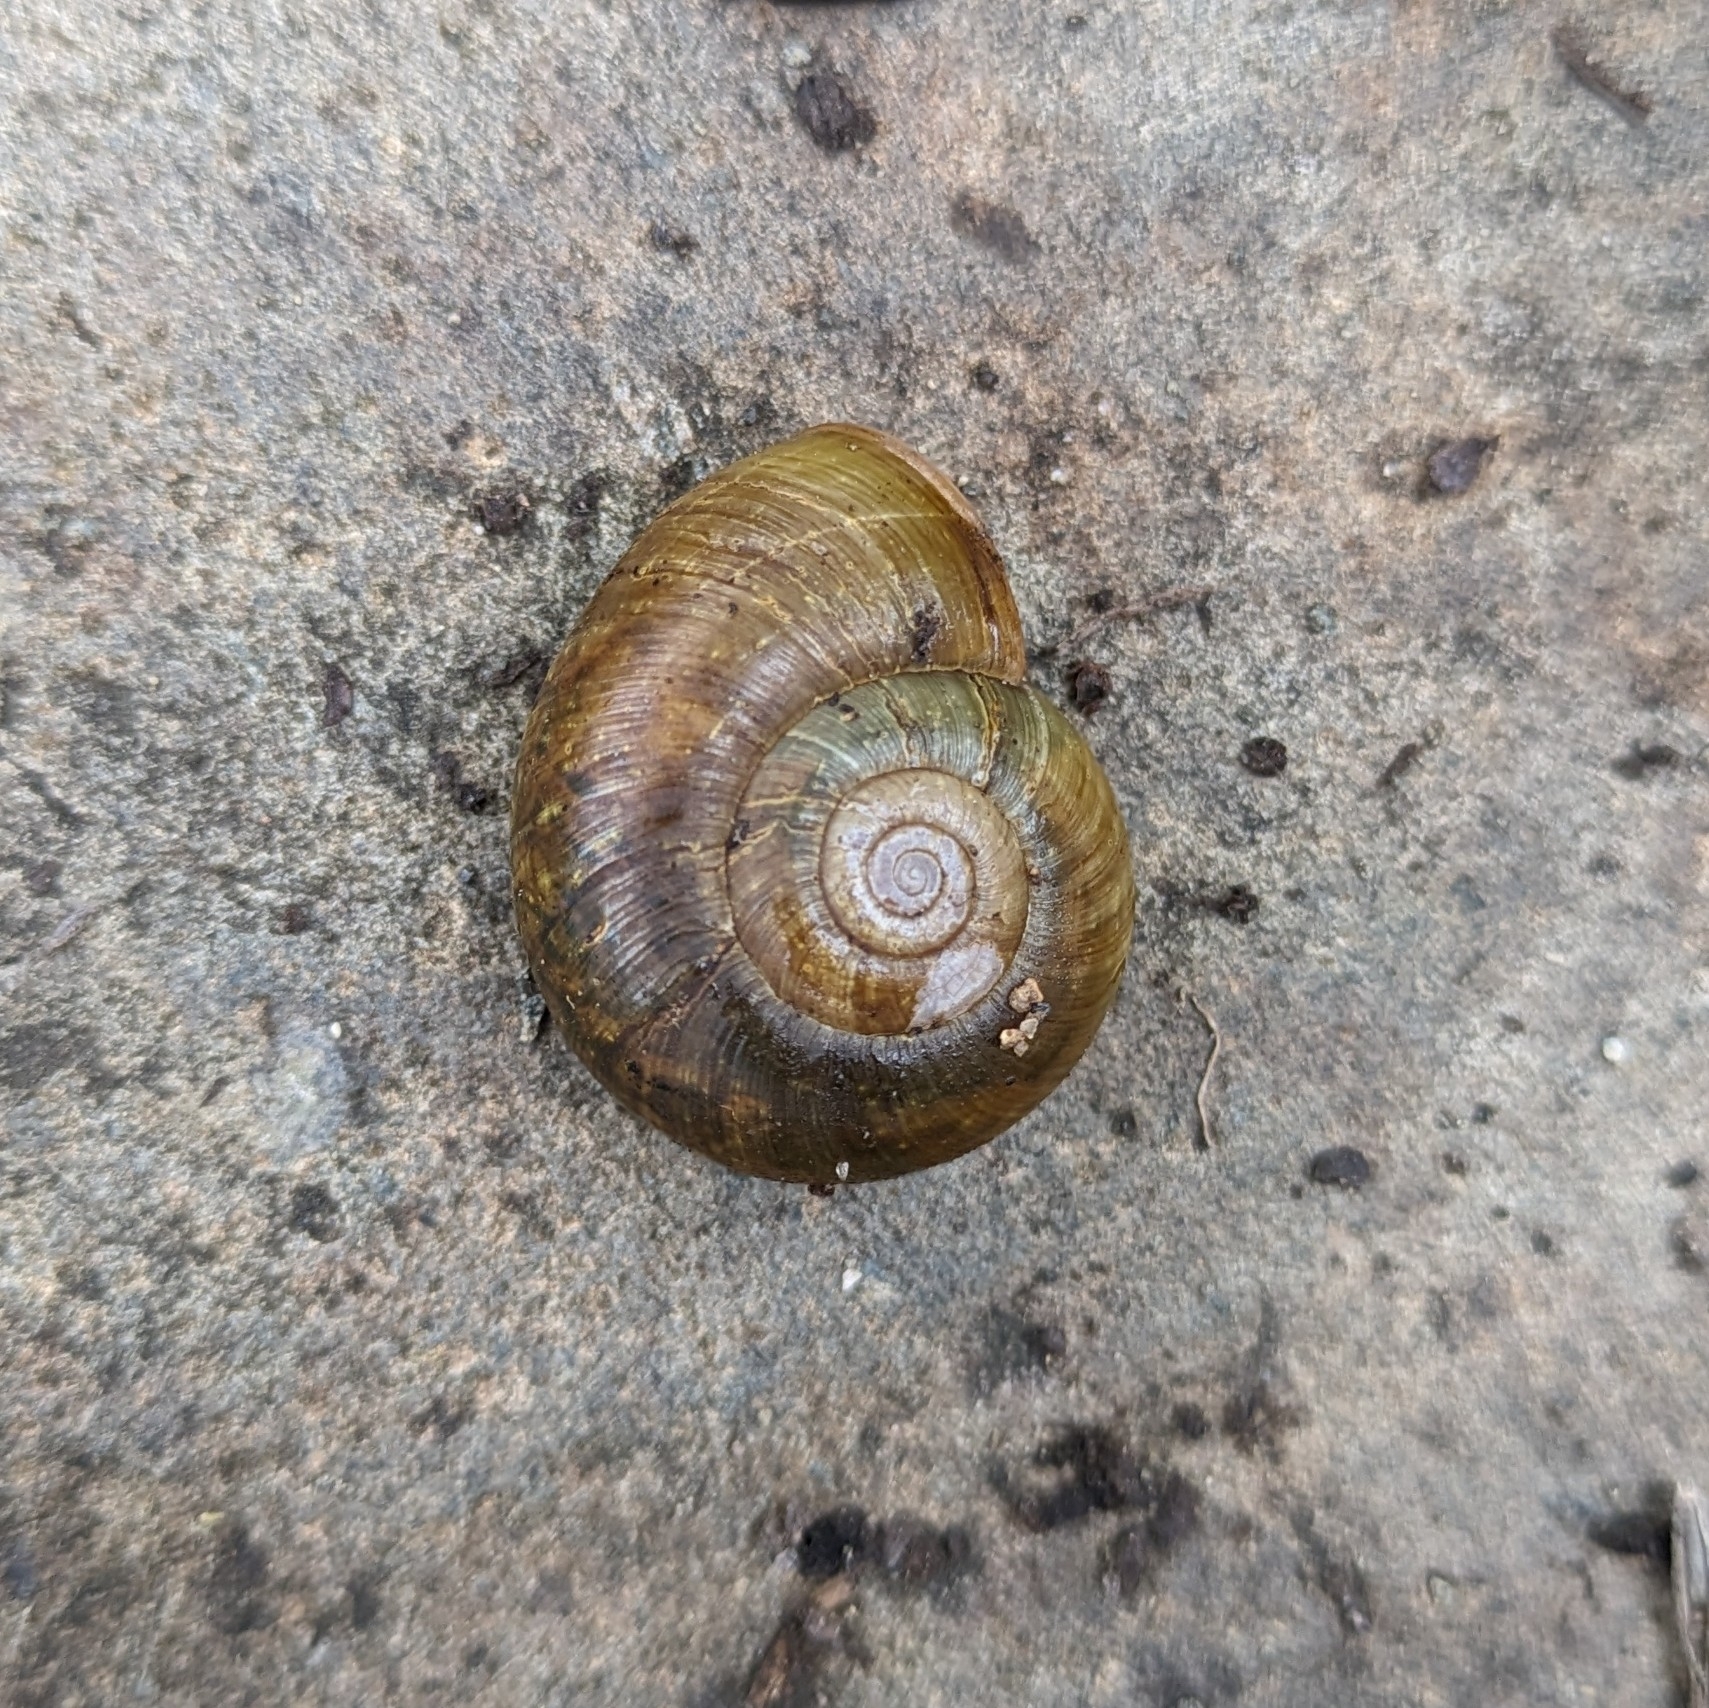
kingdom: Animalia
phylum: Mollusca
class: Gastropoda
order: Stylommatophora
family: Haplotrematidae
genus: Haplotrema
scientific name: Haplotrema vancouverense
